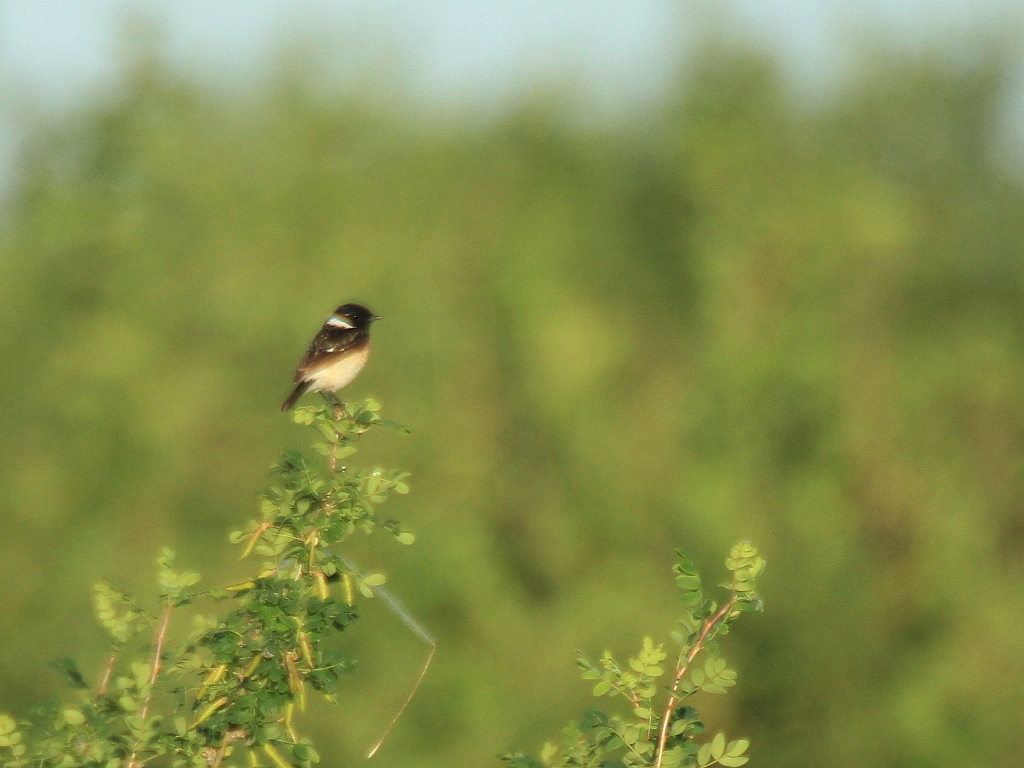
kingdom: Animalia
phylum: Chordata
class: Aves
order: Passeriformes
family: Muscicapidae
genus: Saxicola
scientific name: Saxicola maurus
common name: Siberian stonechat
